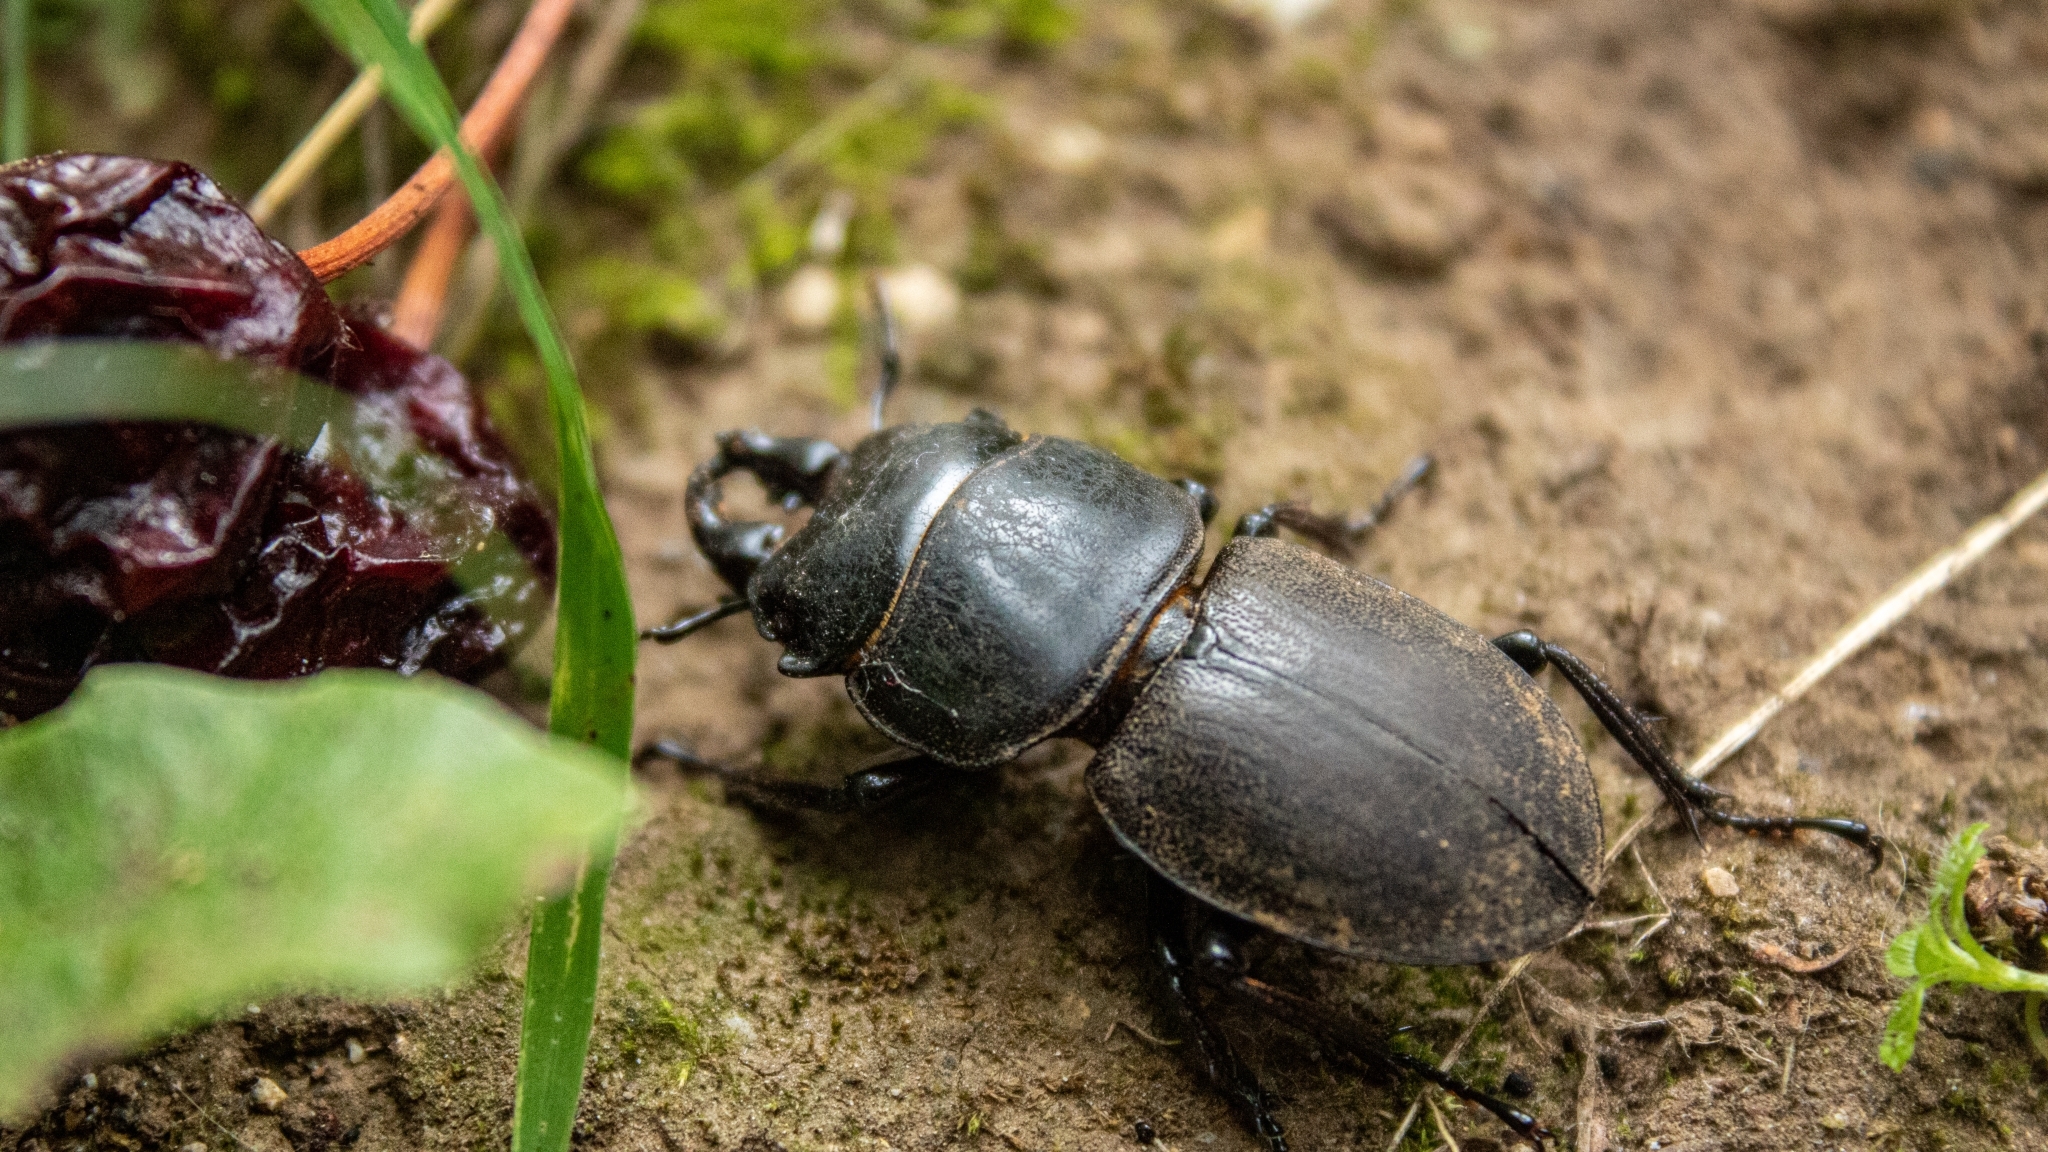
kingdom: Animalia
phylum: Arthropoda
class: Insecta
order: Coleoptera
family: Lucanidae
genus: Apterodorcus
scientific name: Apterodorcus bacchus
